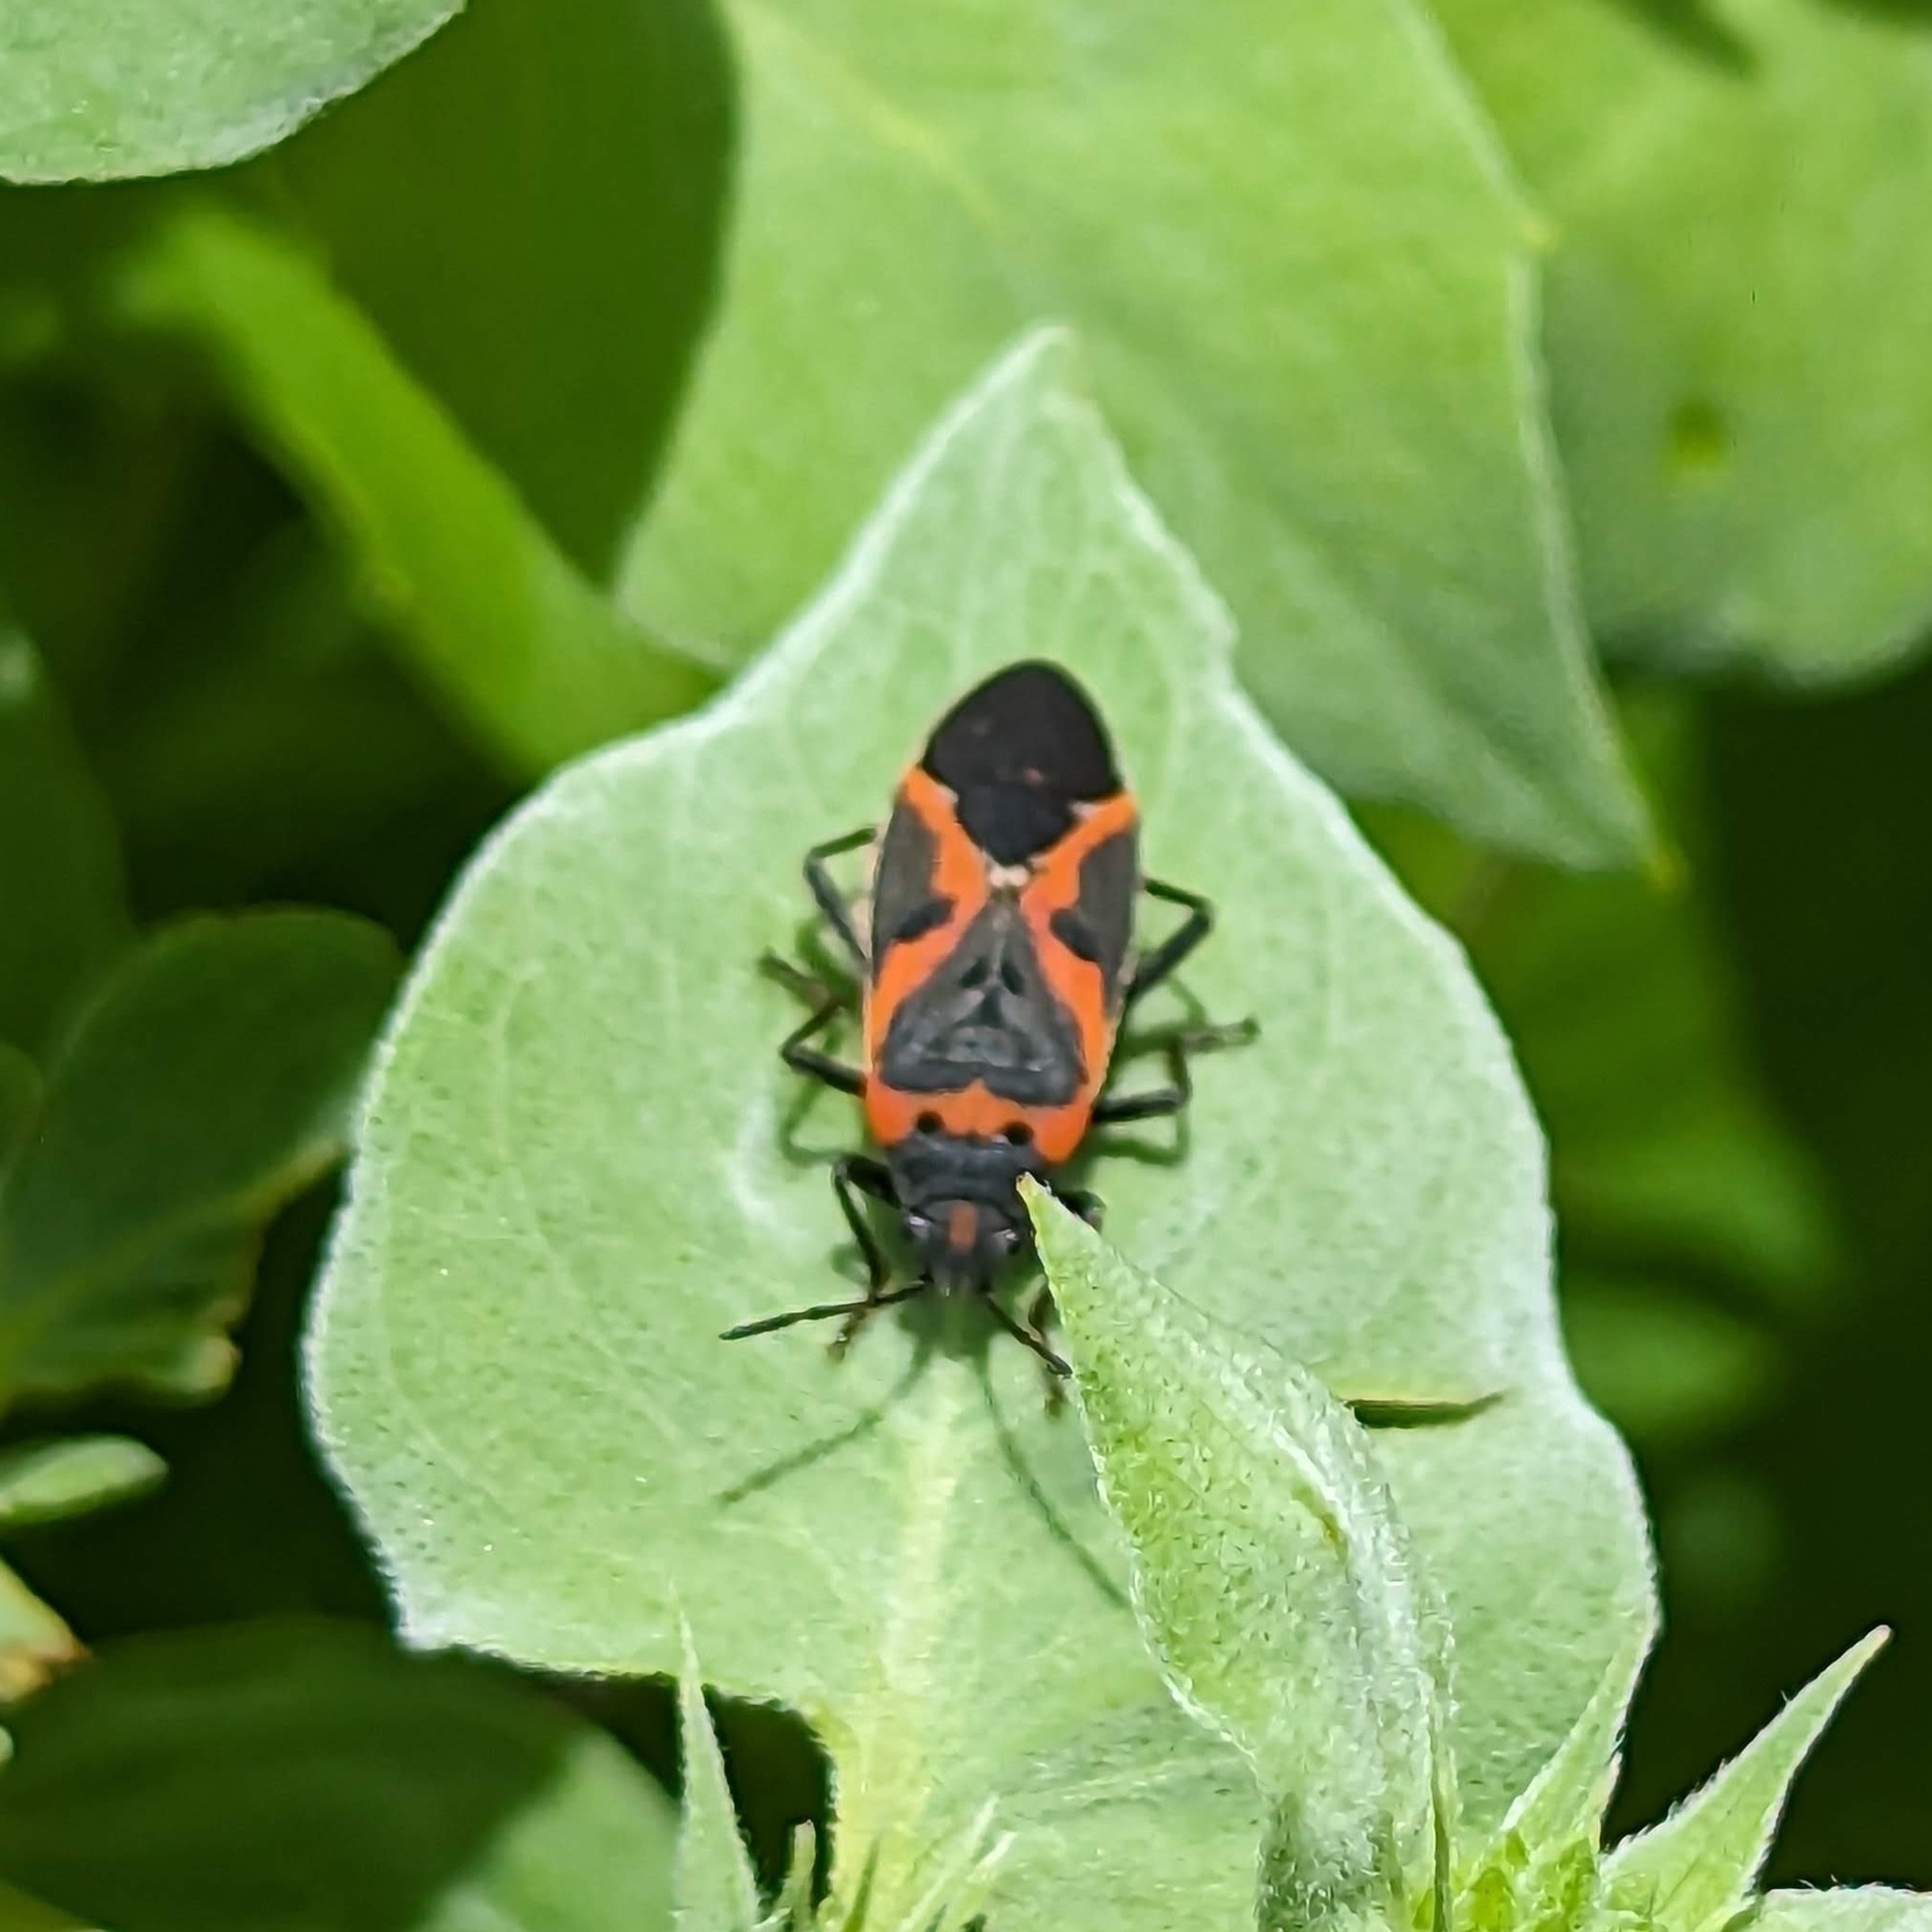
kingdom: Animalia
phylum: Arthropoda
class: Insecta
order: Hemiptera
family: Lygaeidae
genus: Lygaeus
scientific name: Lygaeus kalmii
